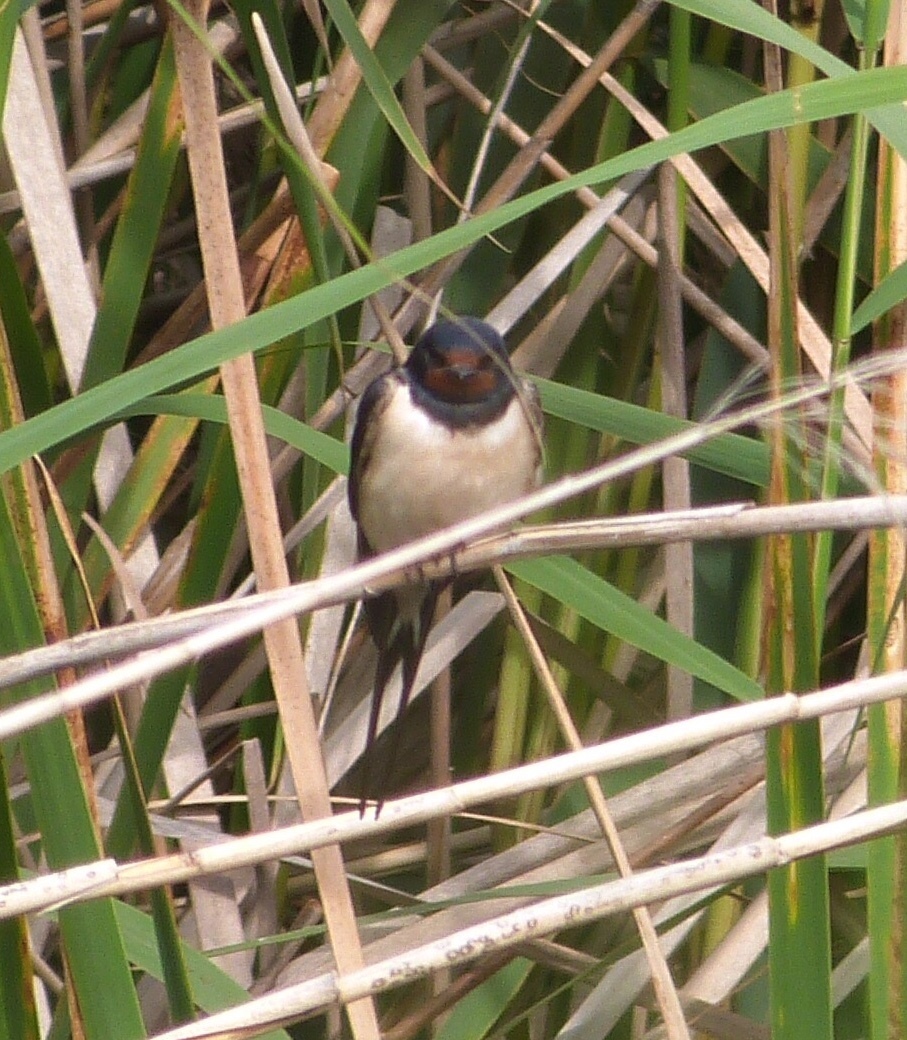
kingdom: Animalia
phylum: Chordata
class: Aves
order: Passeriformes
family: Hirundinidae
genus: Hirundo
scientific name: Hirundo rustica
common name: Barn swallow
